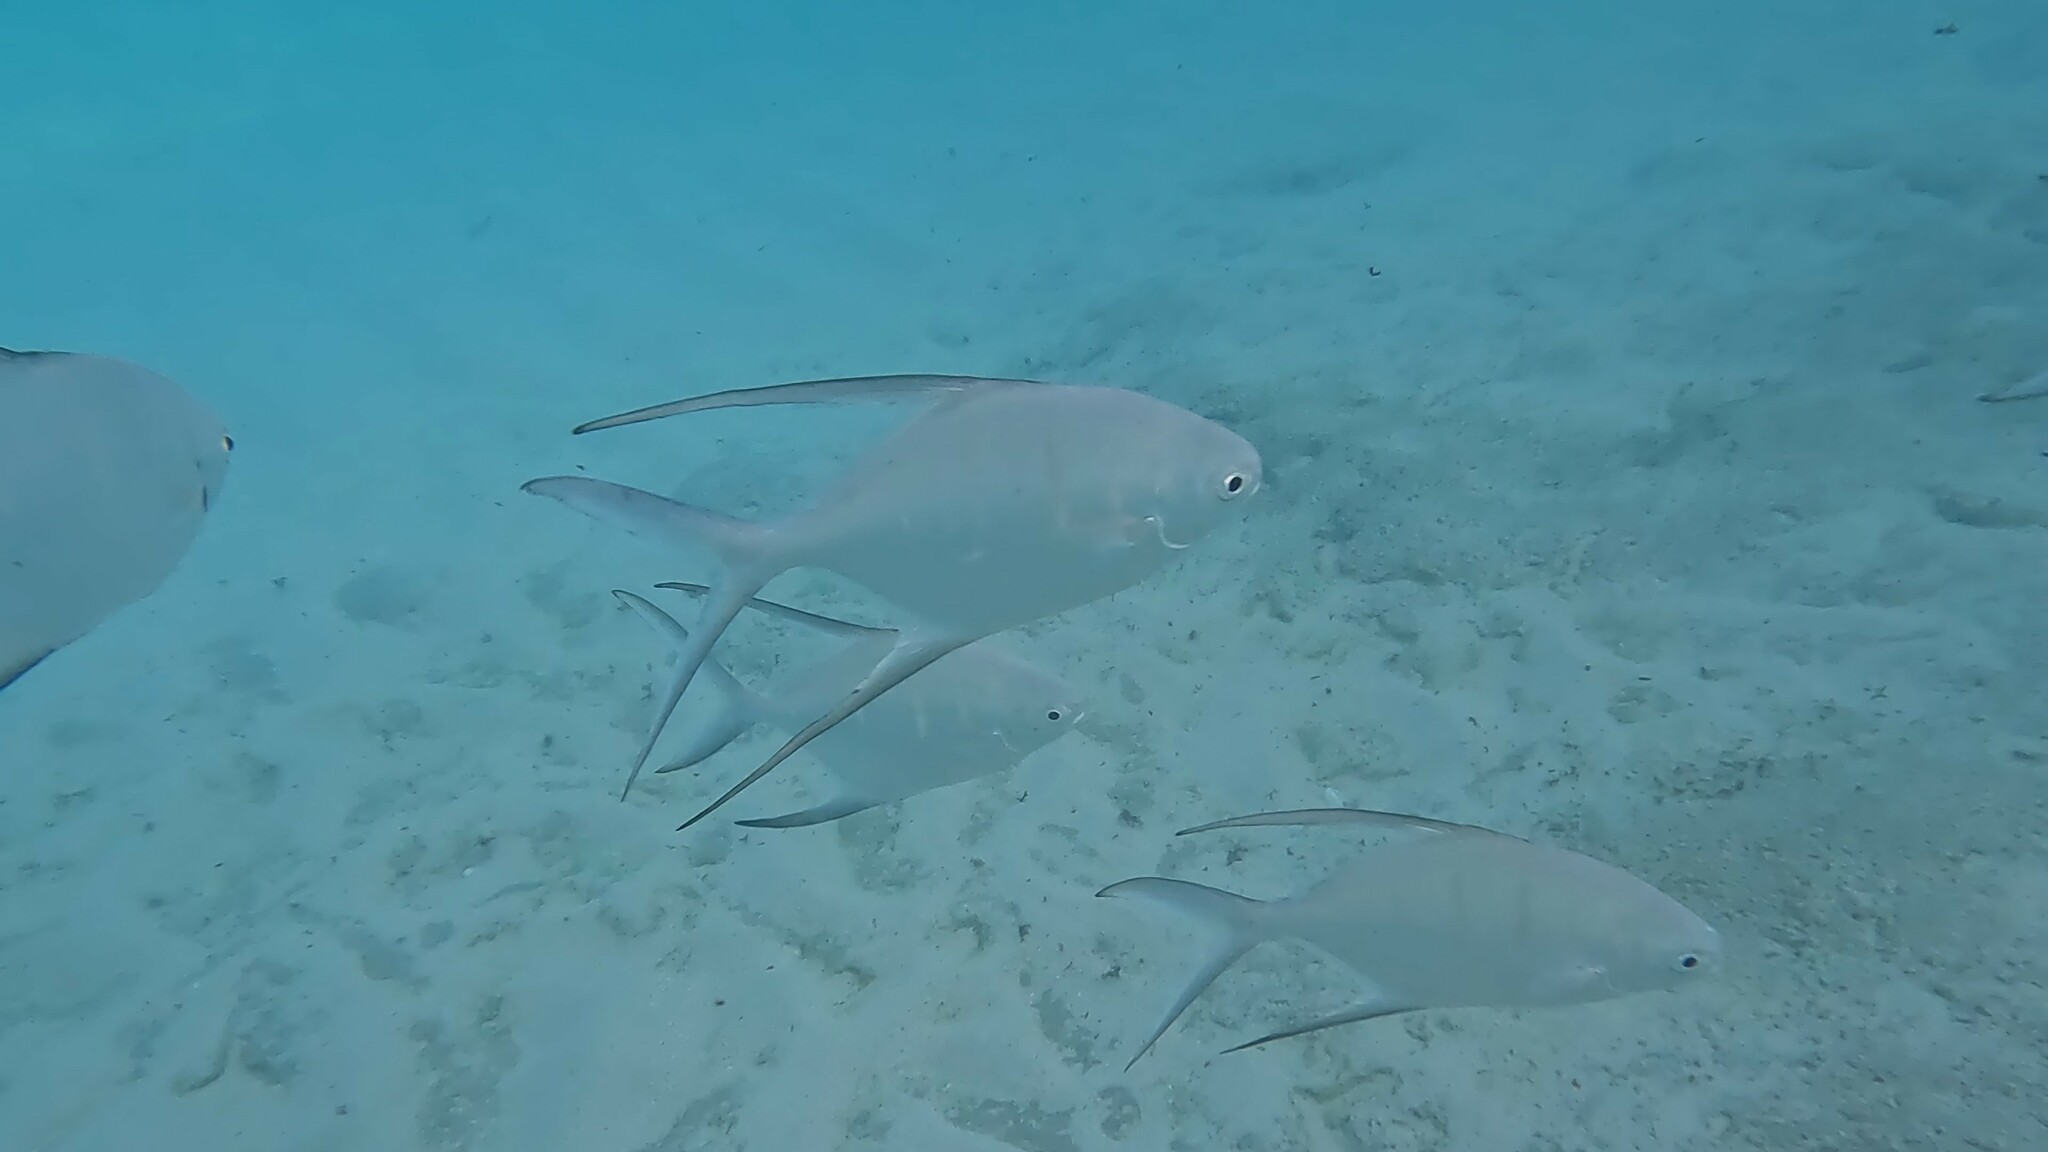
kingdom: Animalia
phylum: Chordata
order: Perciformes
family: Carangidae
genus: Trachinotus
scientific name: Trachinotus goodei
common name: Palometa
